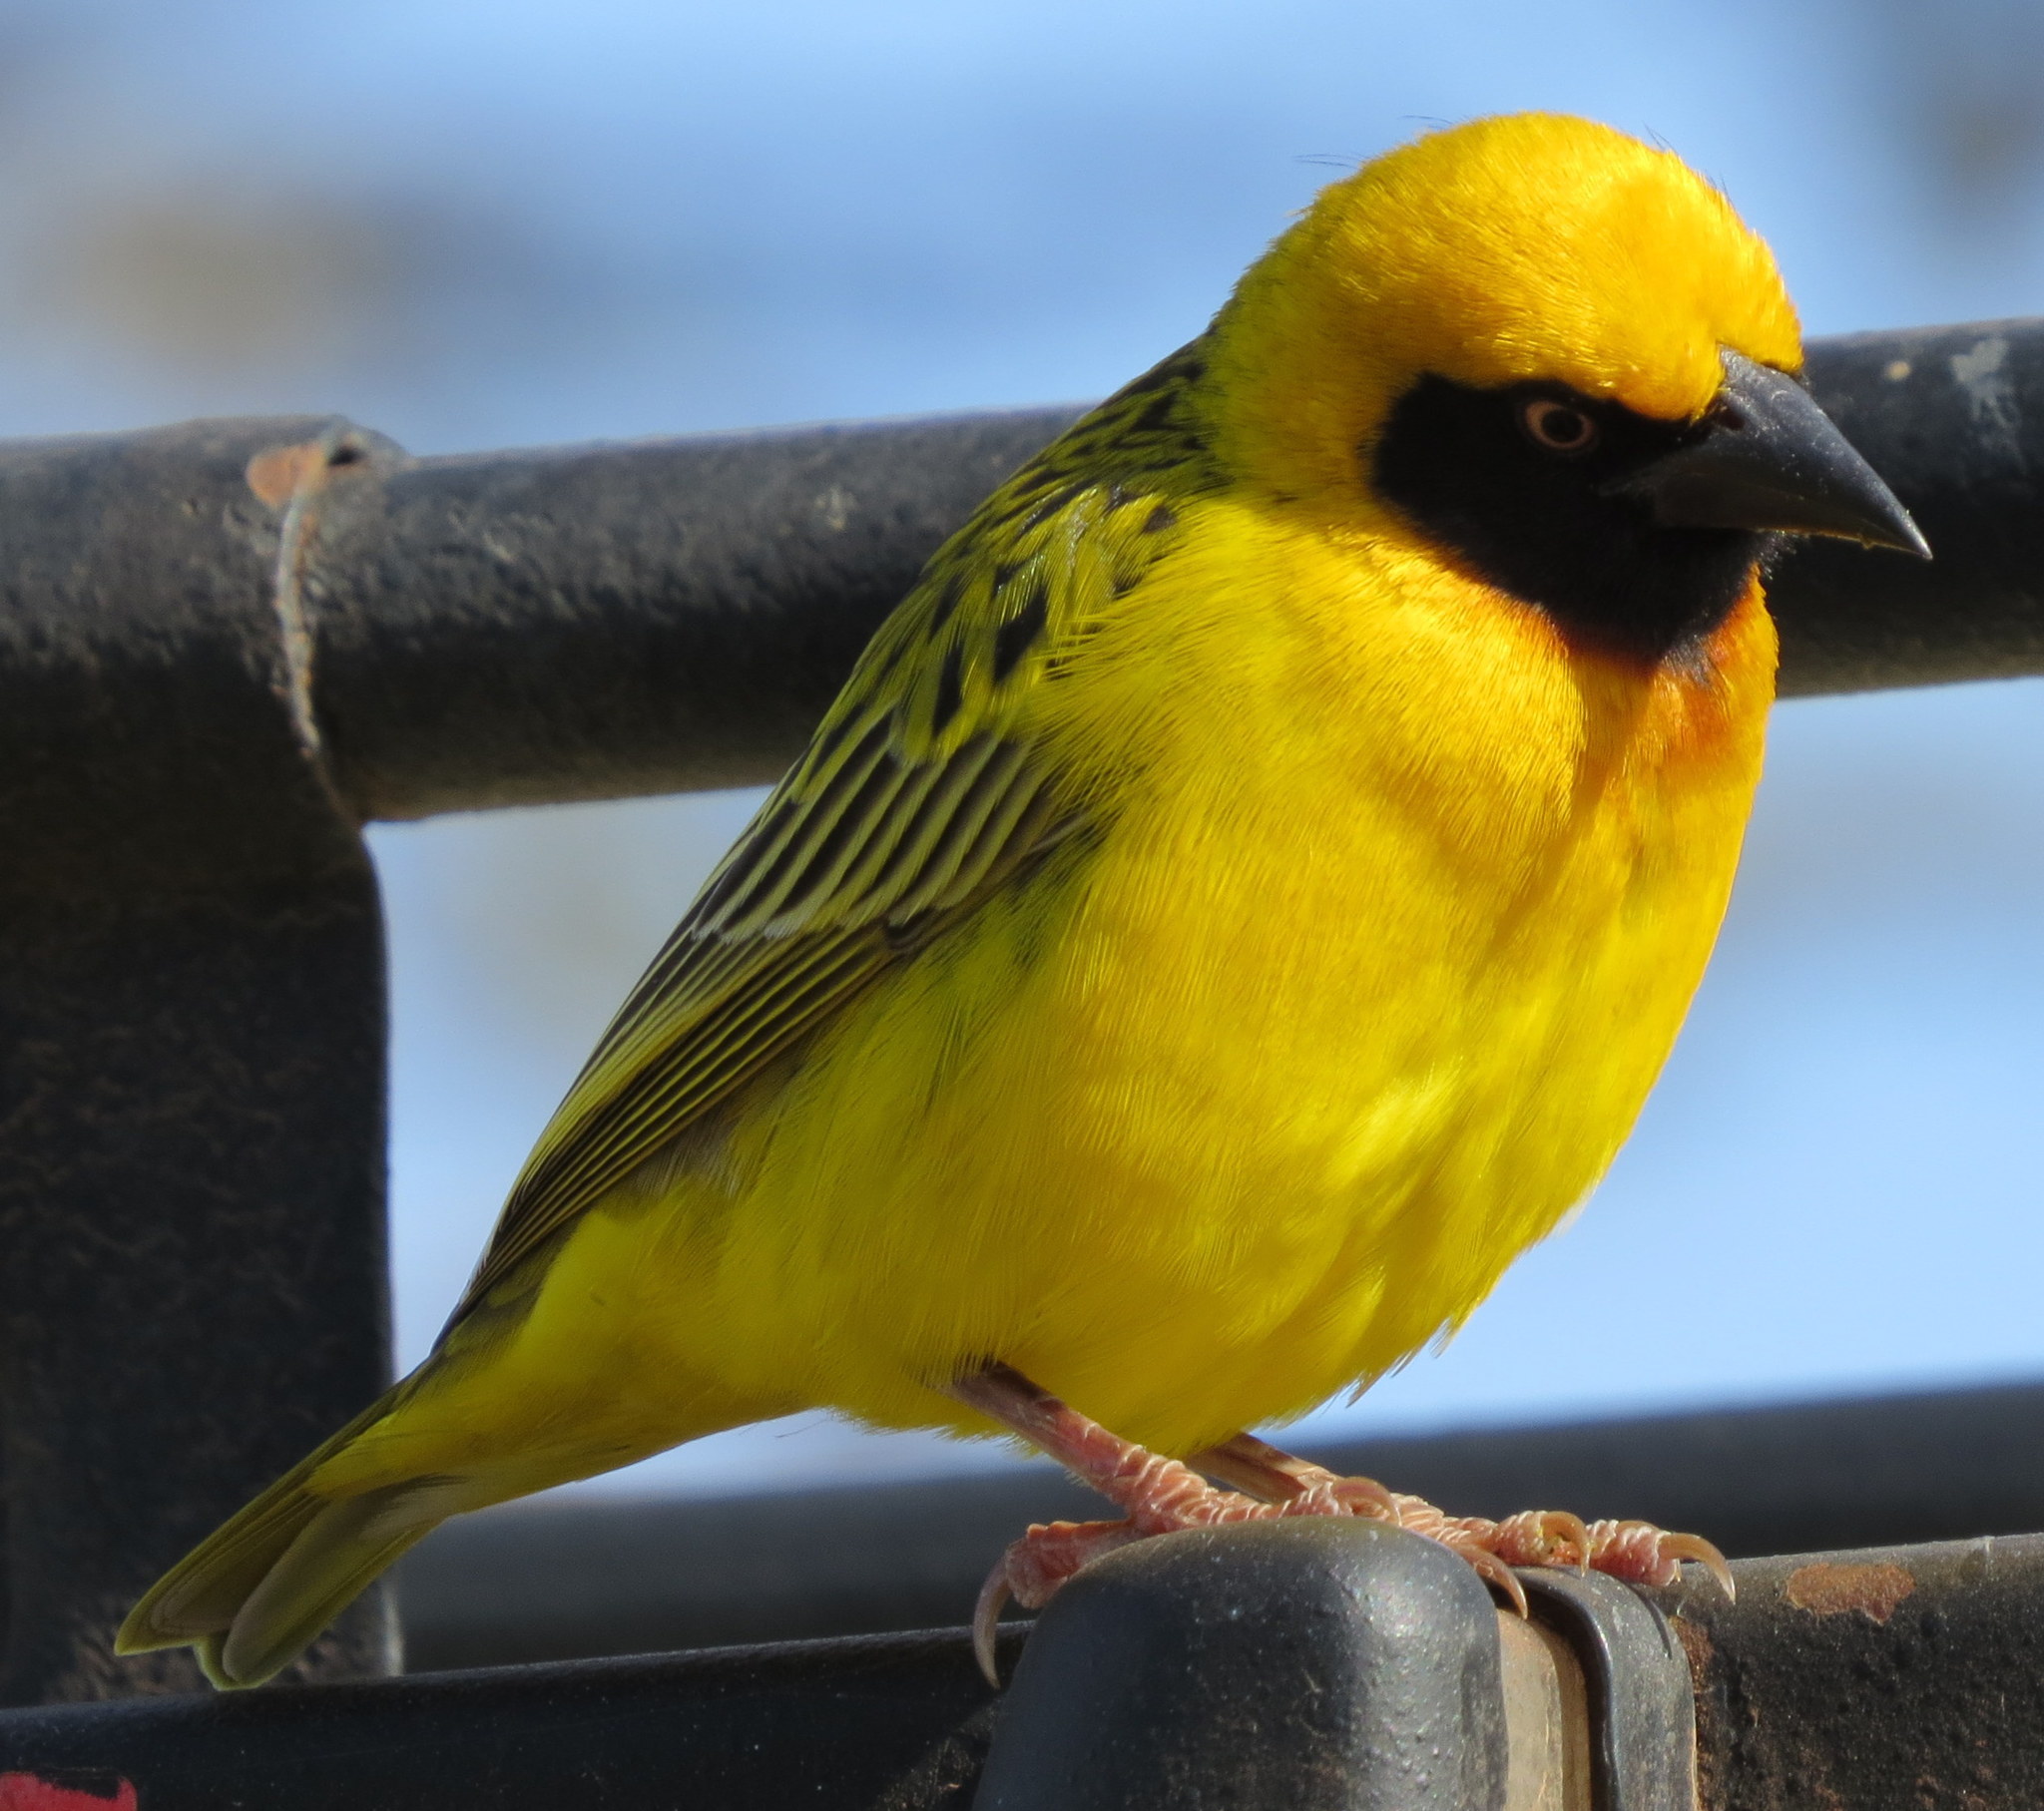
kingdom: Animalia
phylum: Chordata
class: Aves
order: Passeriformes
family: Ploceidae
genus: Ploceus
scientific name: Ploceus spekei
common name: Speke's weaver
